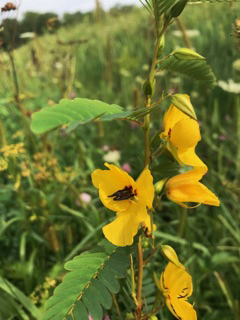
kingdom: Plantae
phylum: Tracheophyta
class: Magnoliopsida
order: Fabales
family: Fabaceae
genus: Chamaecrista
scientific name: Chamaecrista fasciculata
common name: Golden cassia
